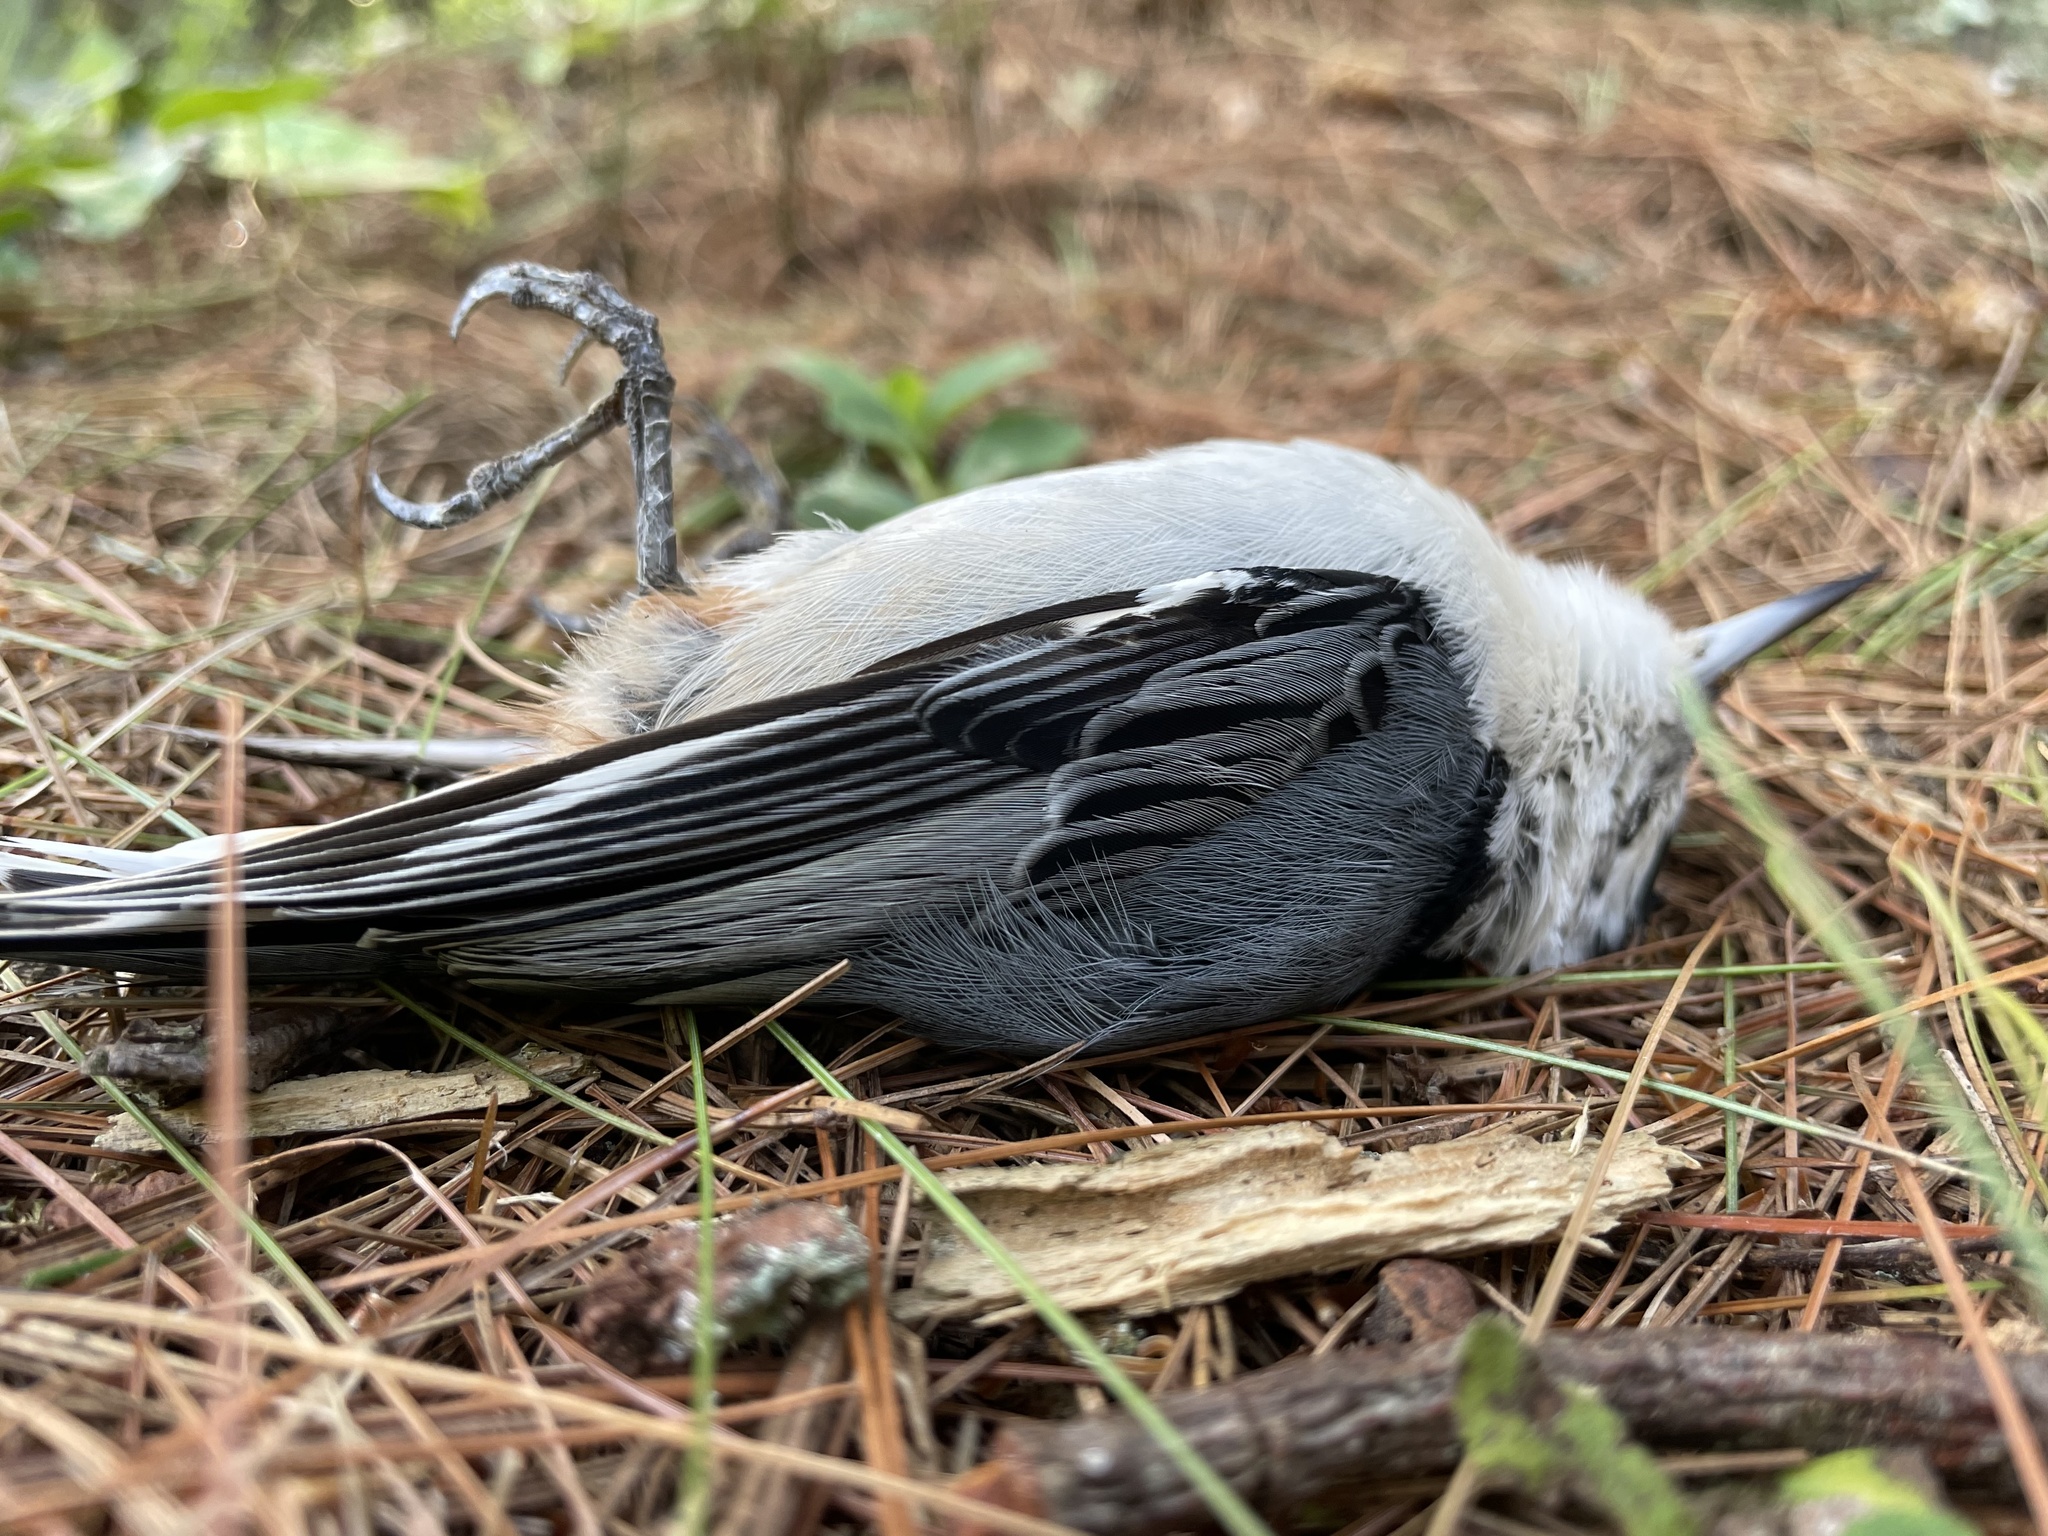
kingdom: Animalia
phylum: Chordata
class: Aves
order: Passeriformes
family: Sittidae
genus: Sitta
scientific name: Sitta carolinensis
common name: White-breasted nuthatch
